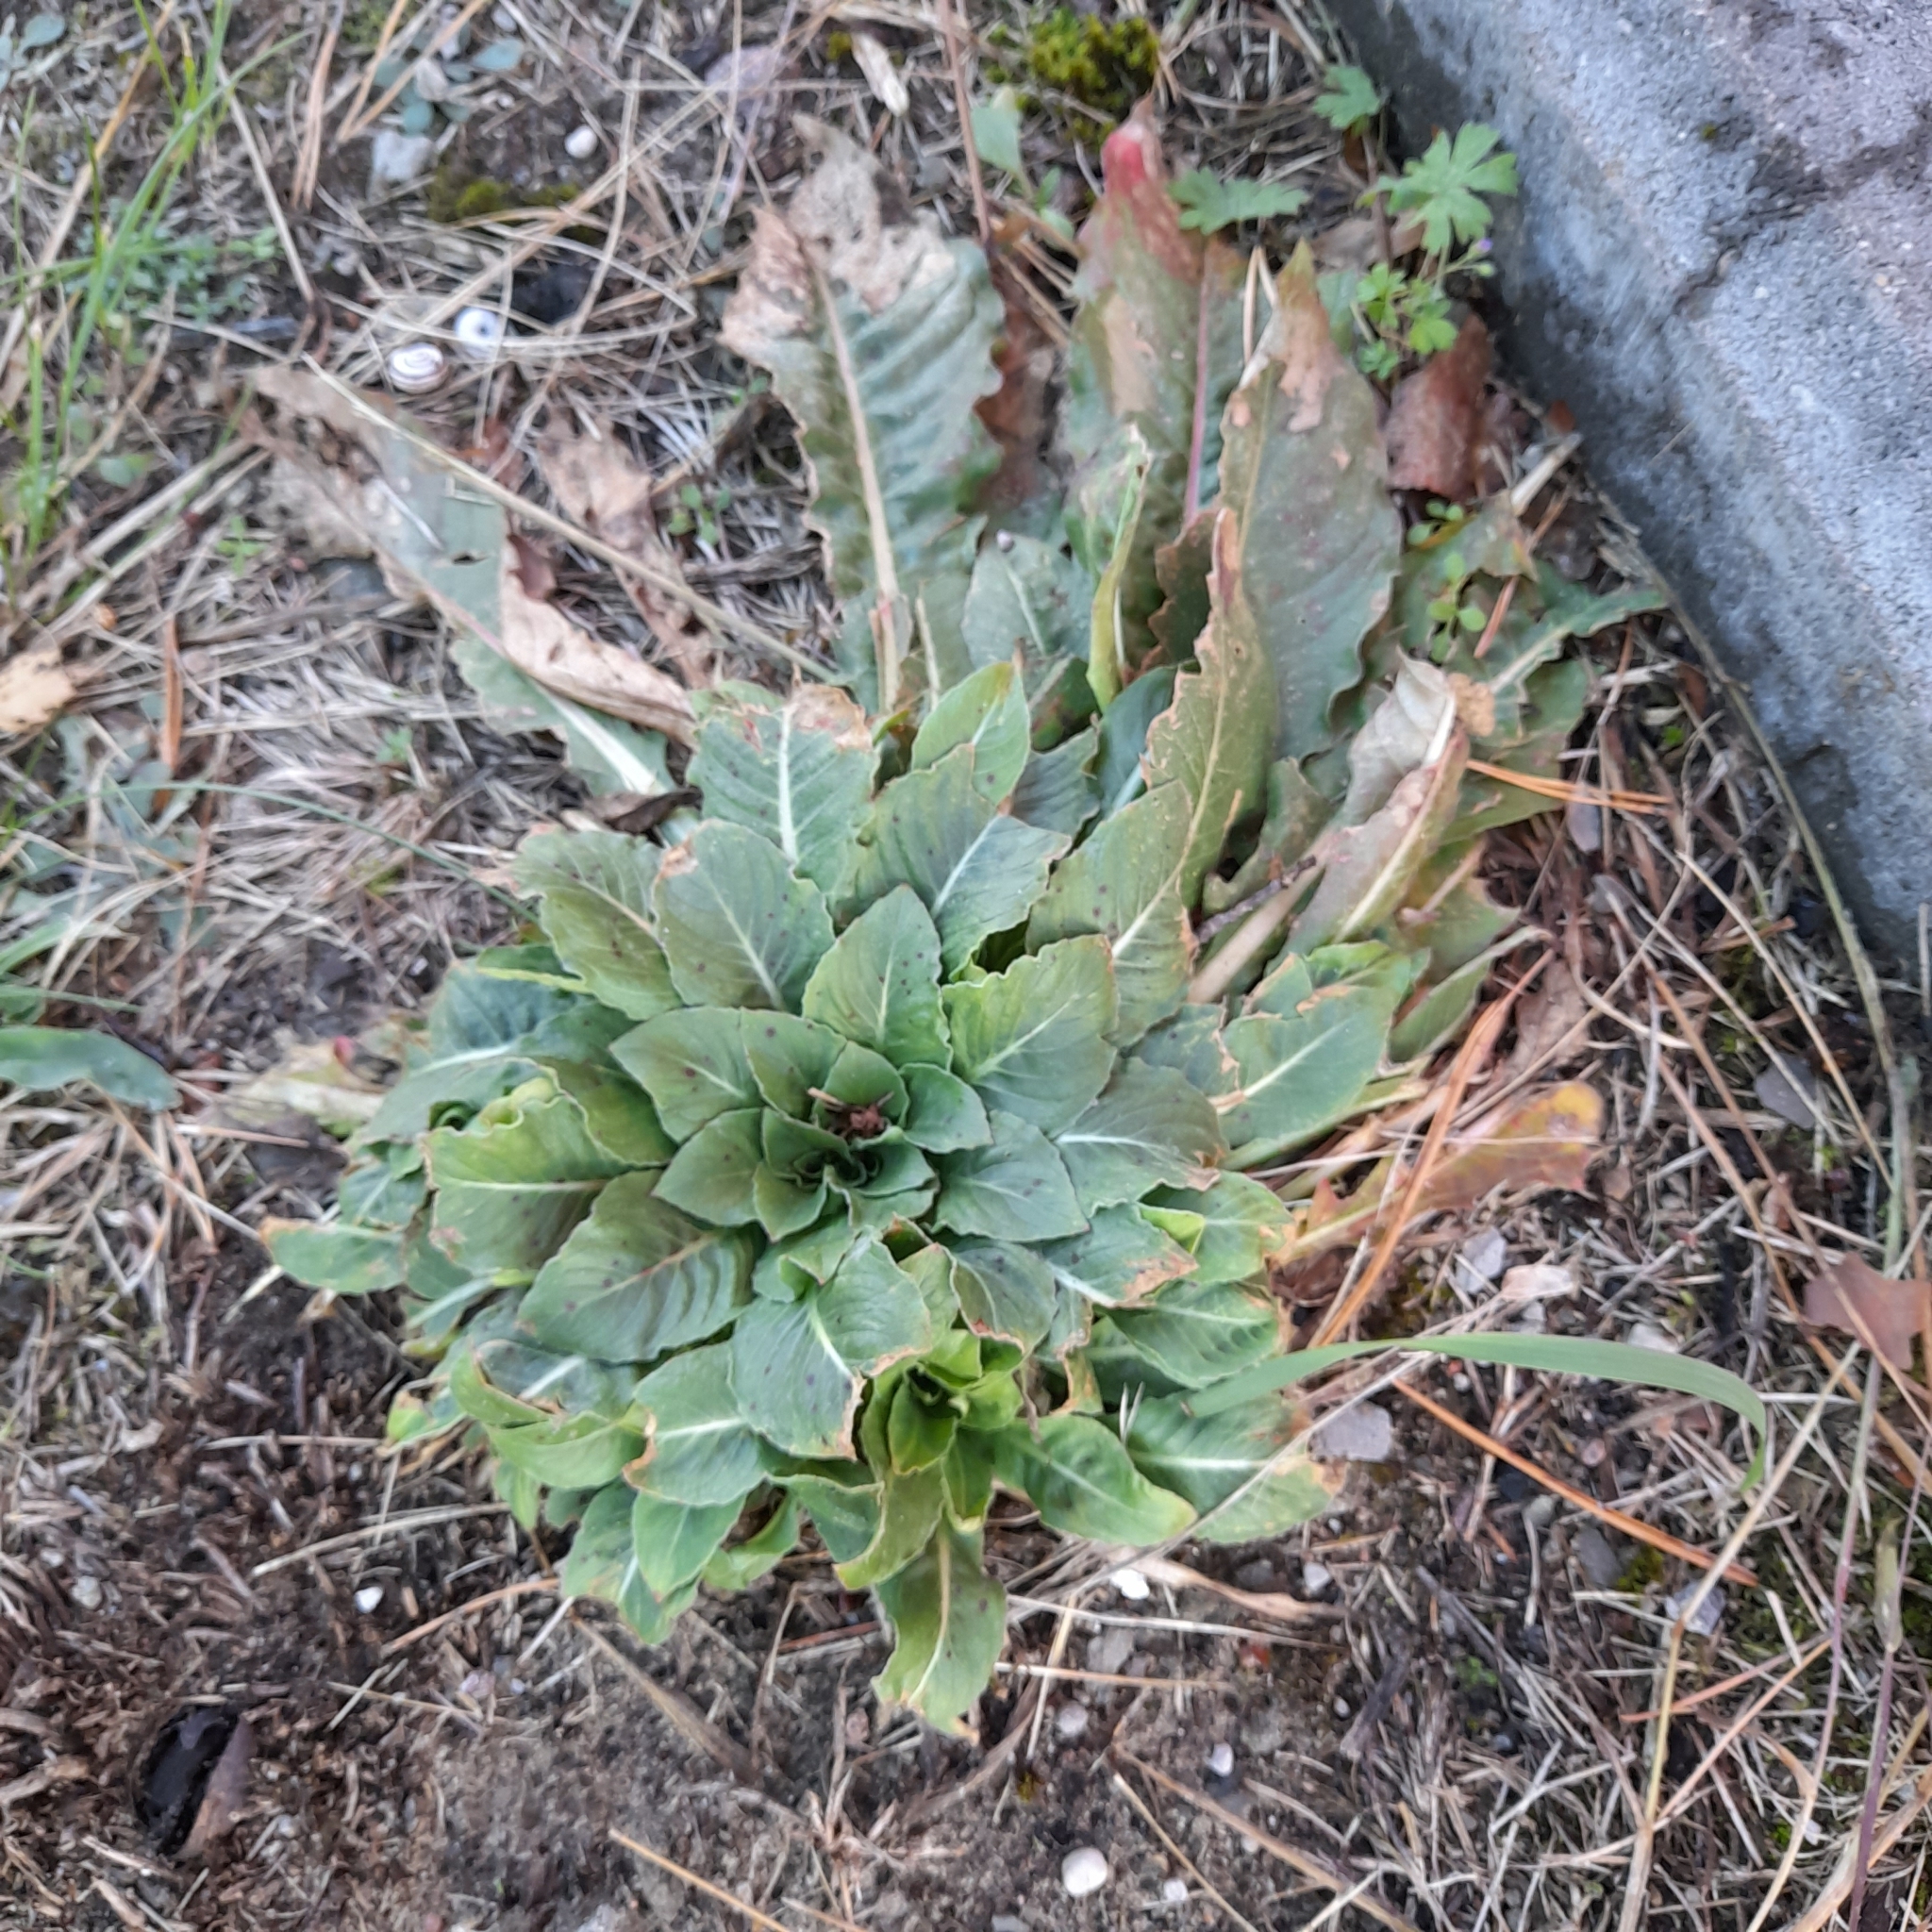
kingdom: Plantae
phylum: Tracheophyta
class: Magnoliopsida
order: Myrtales
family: Onagraceae
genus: Oenothera
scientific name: Oenothera
